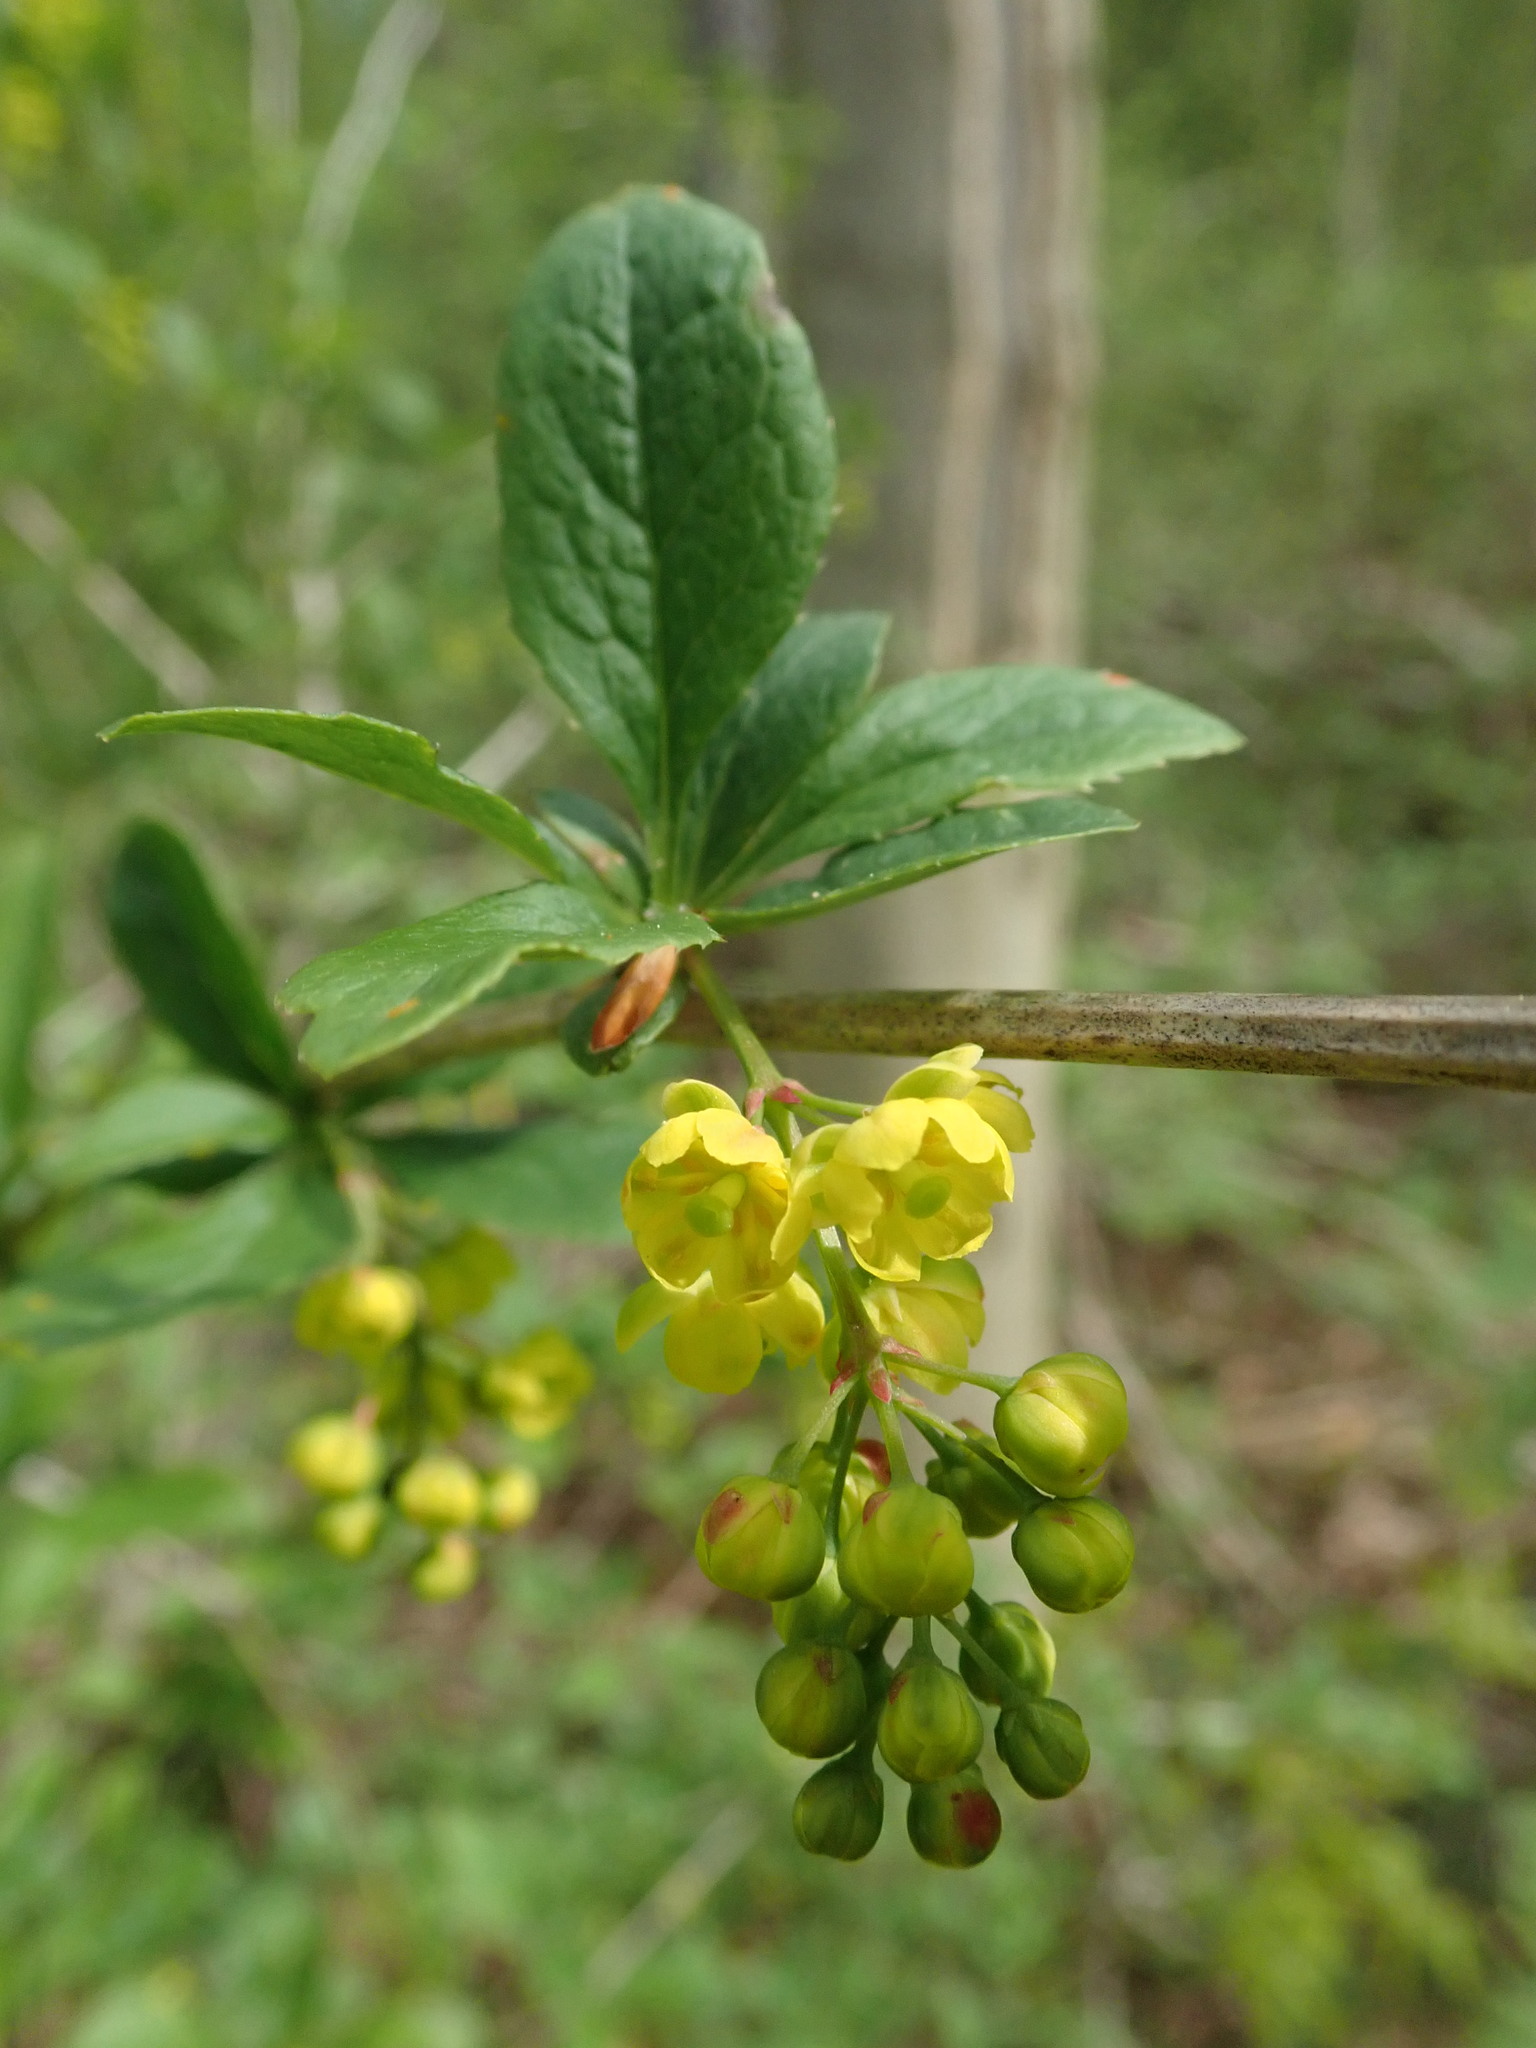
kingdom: Plantae
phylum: Tracheophyta
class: Magnoliopsida
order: Ranunculales
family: Berberidaceae
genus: Berberis
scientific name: Berberis vulgaris
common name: Barberry
